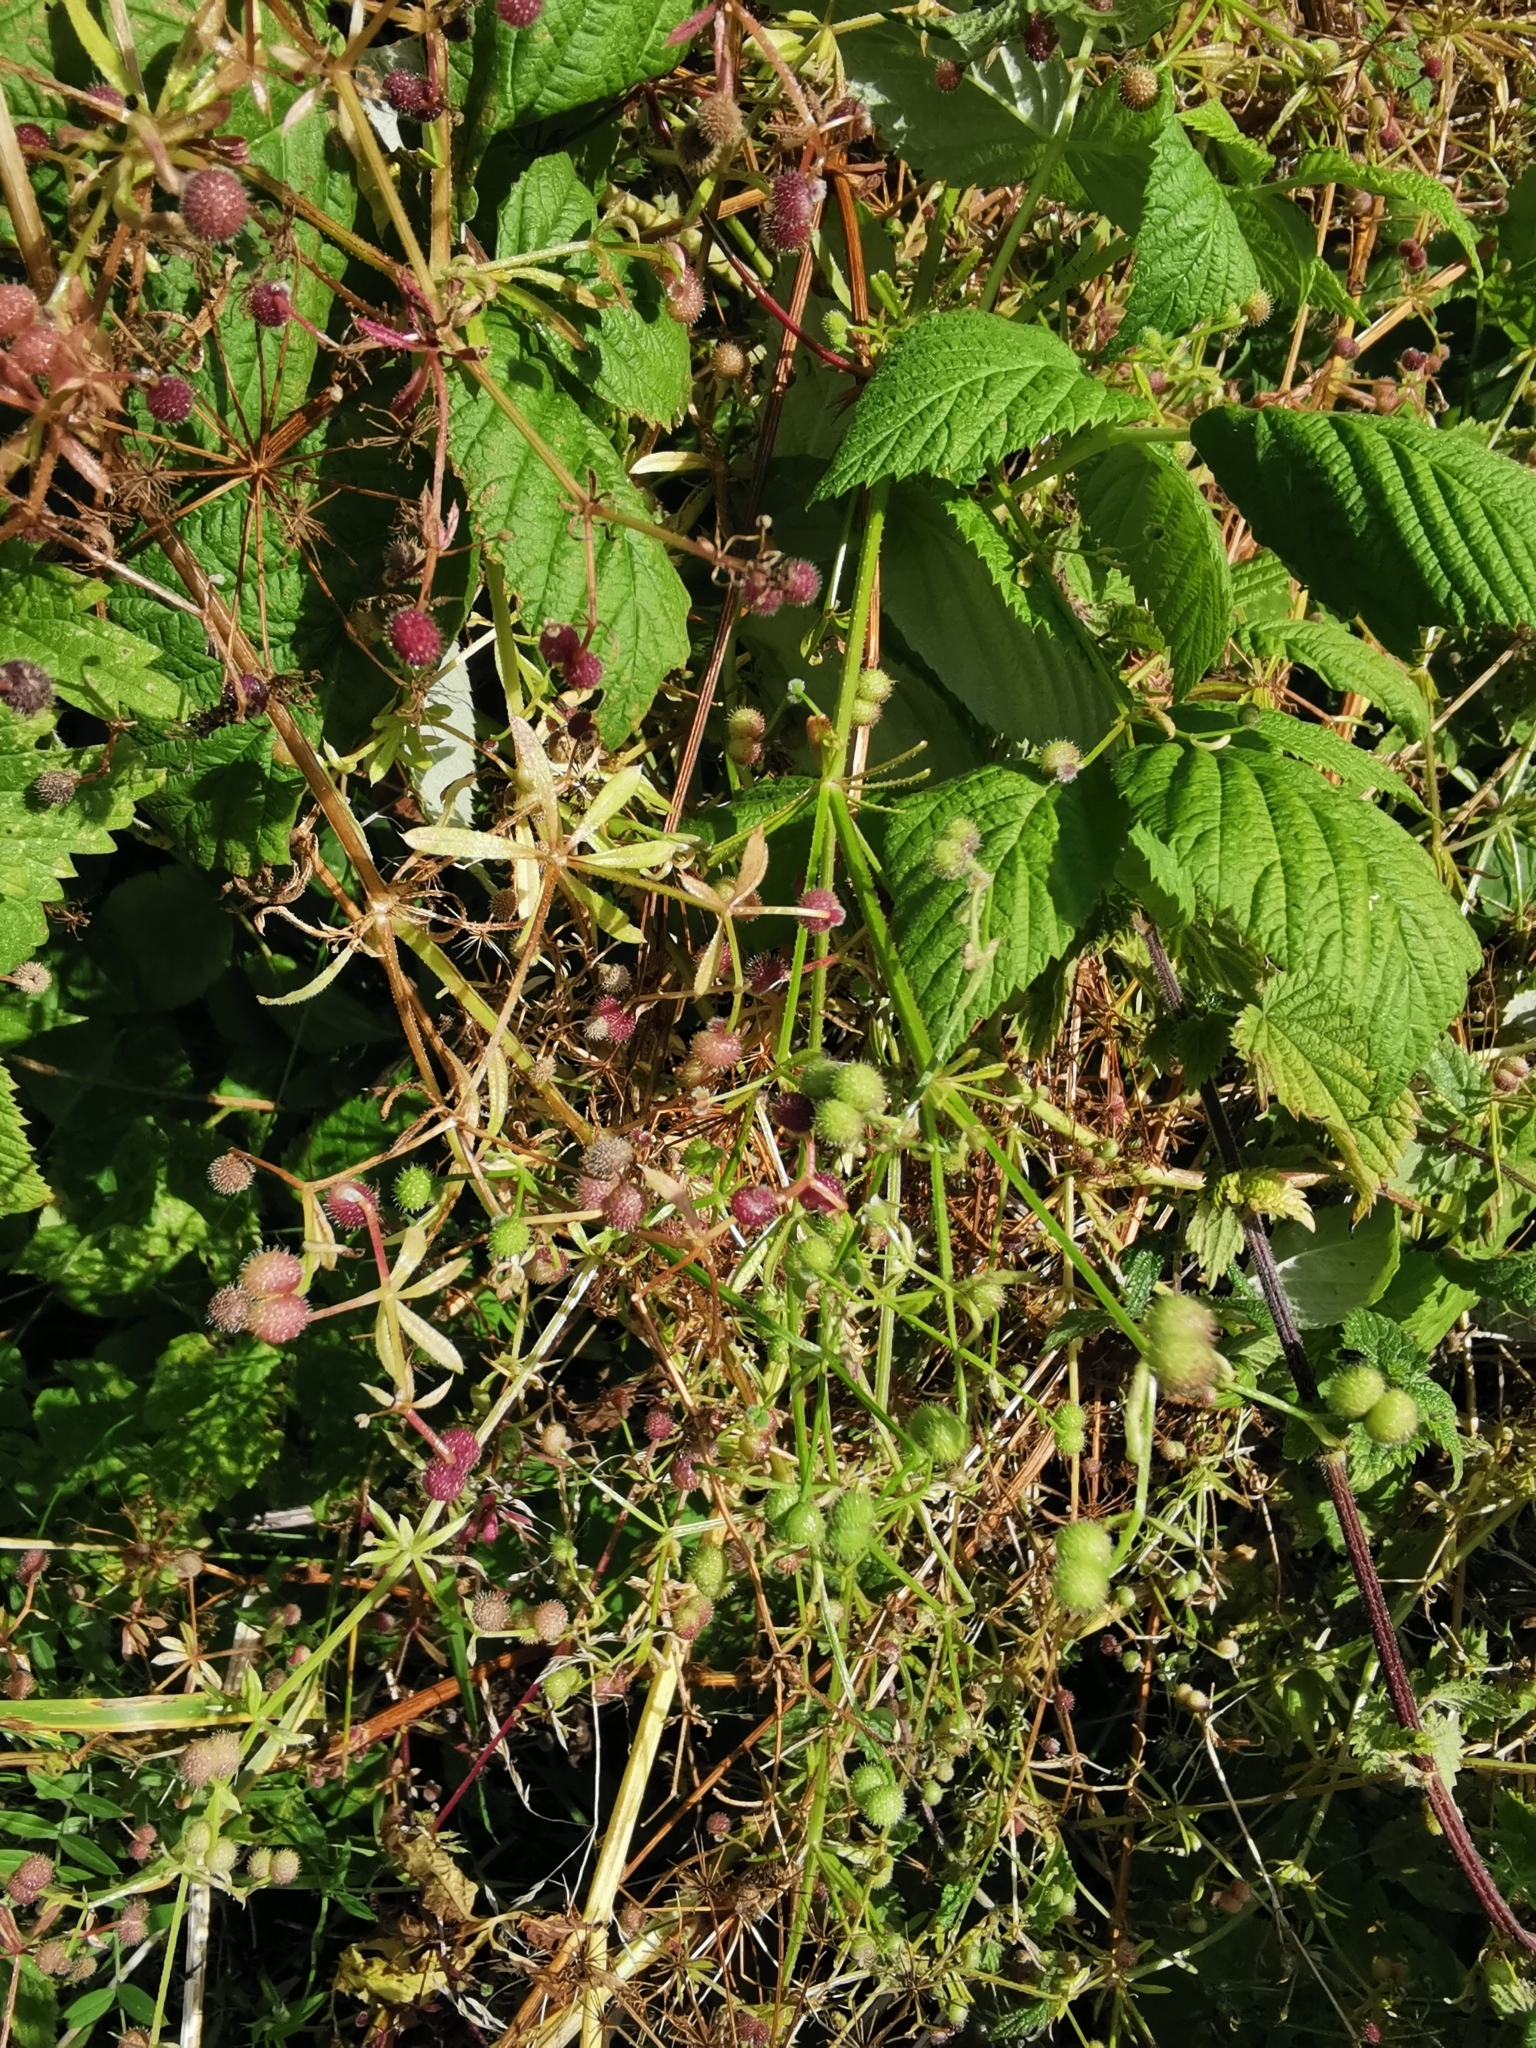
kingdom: Plantae
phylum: Tracheophyta
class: Magnoliopsida
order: Gentianales
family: Rubiaceae
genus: Galium
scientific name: Galium aparine
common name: Cleavers
